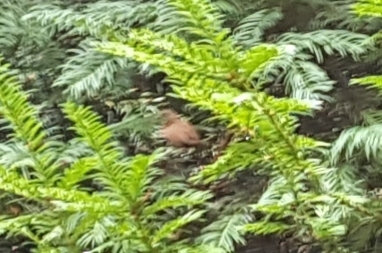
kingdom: Animalia
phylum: Chordata
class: Aves
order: Passeriformes
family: Troglodytidae
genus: Troglodytes
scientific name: Troglodytes troglodytes
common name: Eurasian wren
